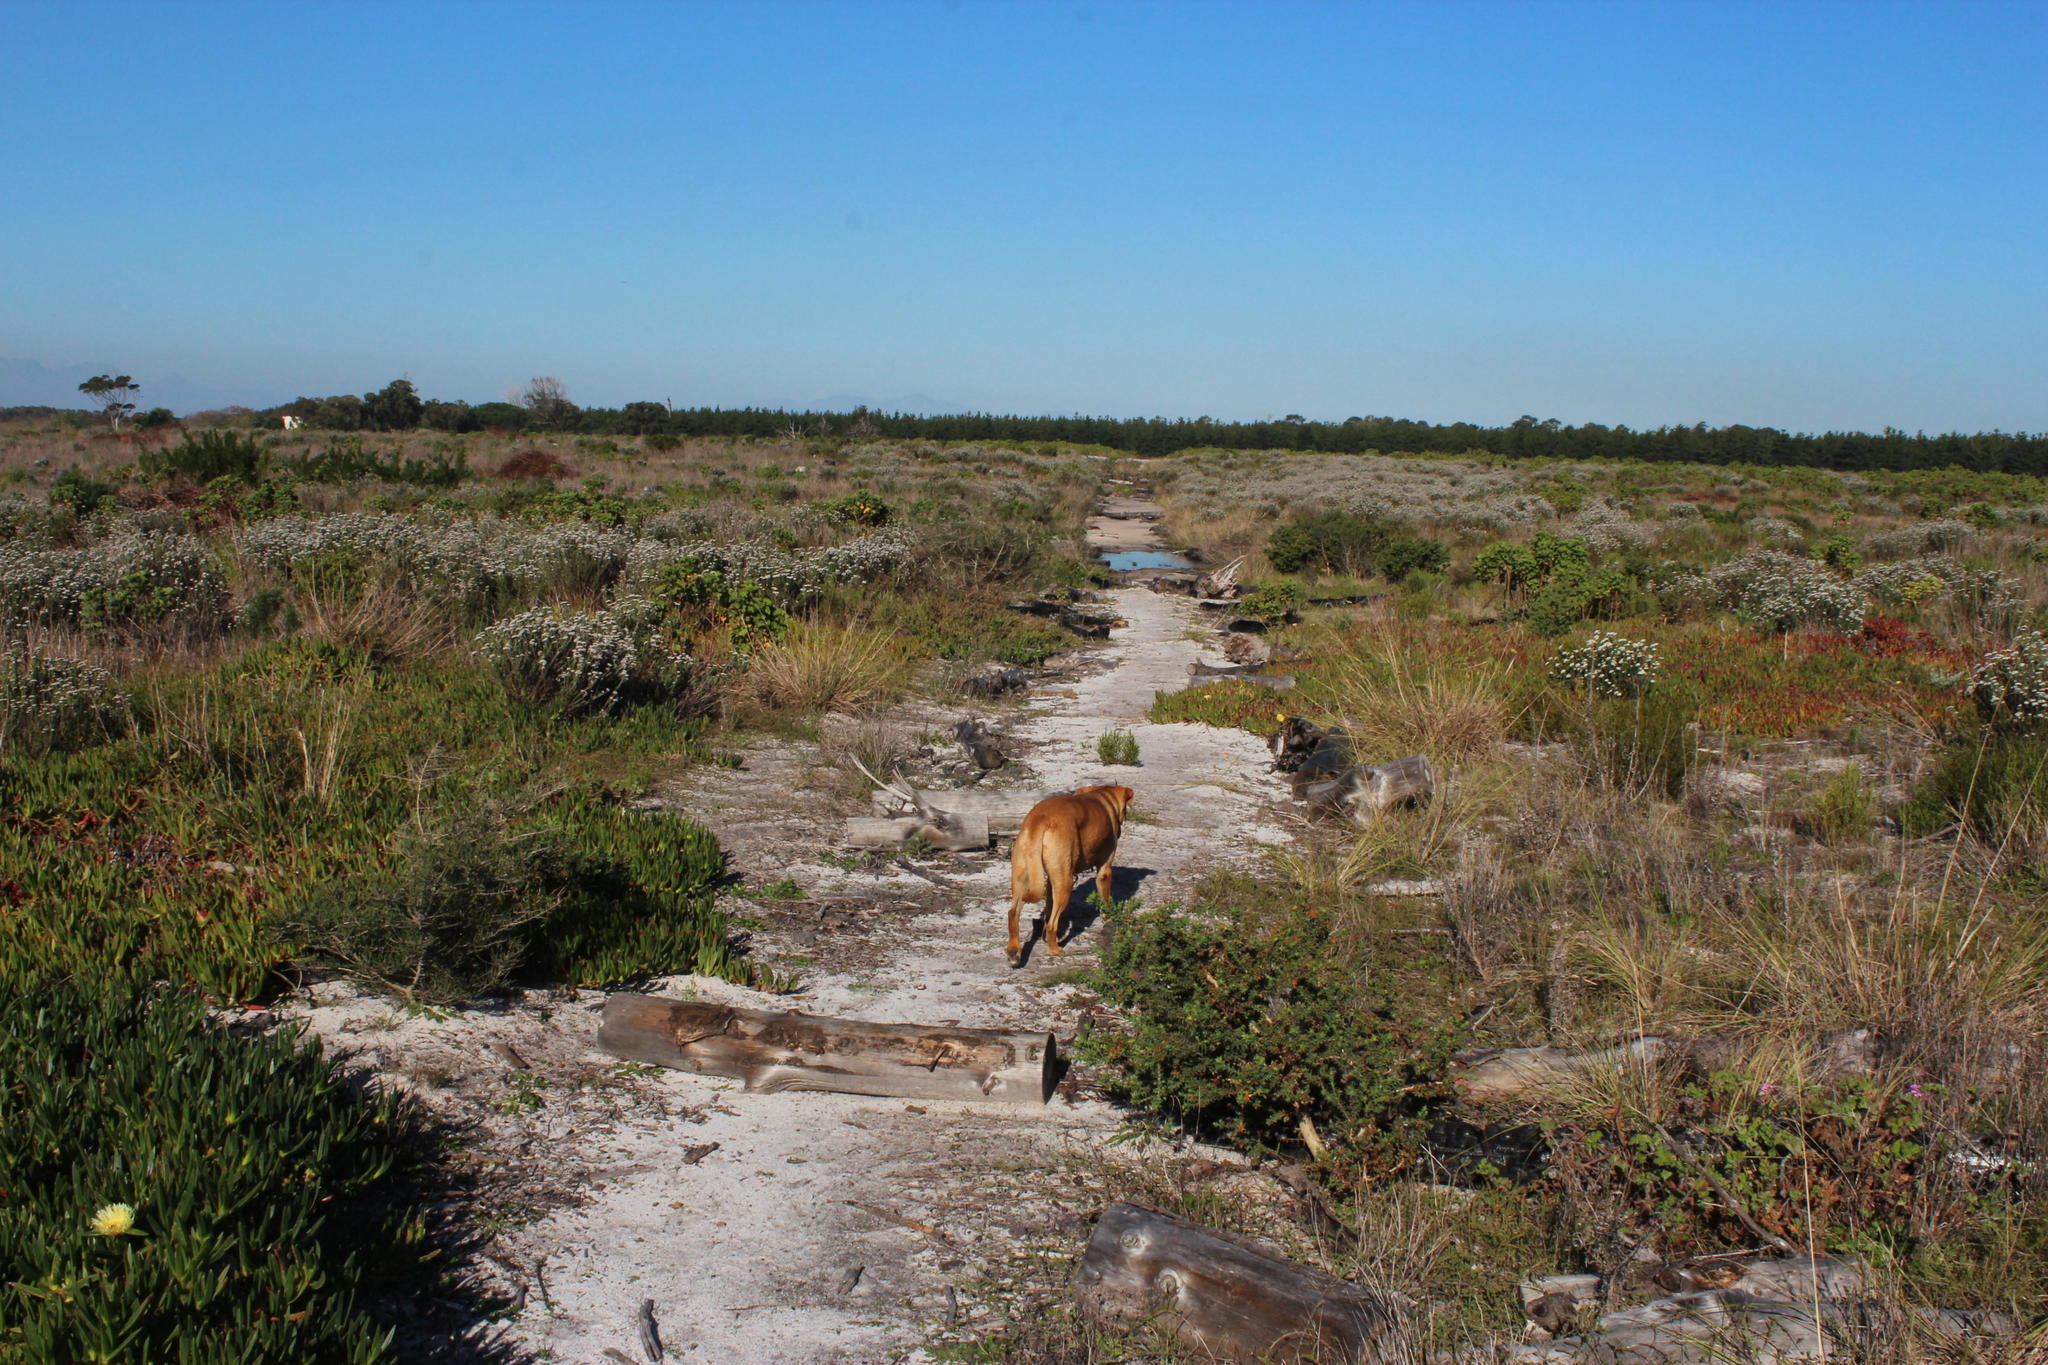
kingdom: Plantae
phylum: Tracheophyta
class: Magnoliopsida
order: Asterales
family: Asteraceae
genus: Metalasia
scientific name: Metalasia densa
